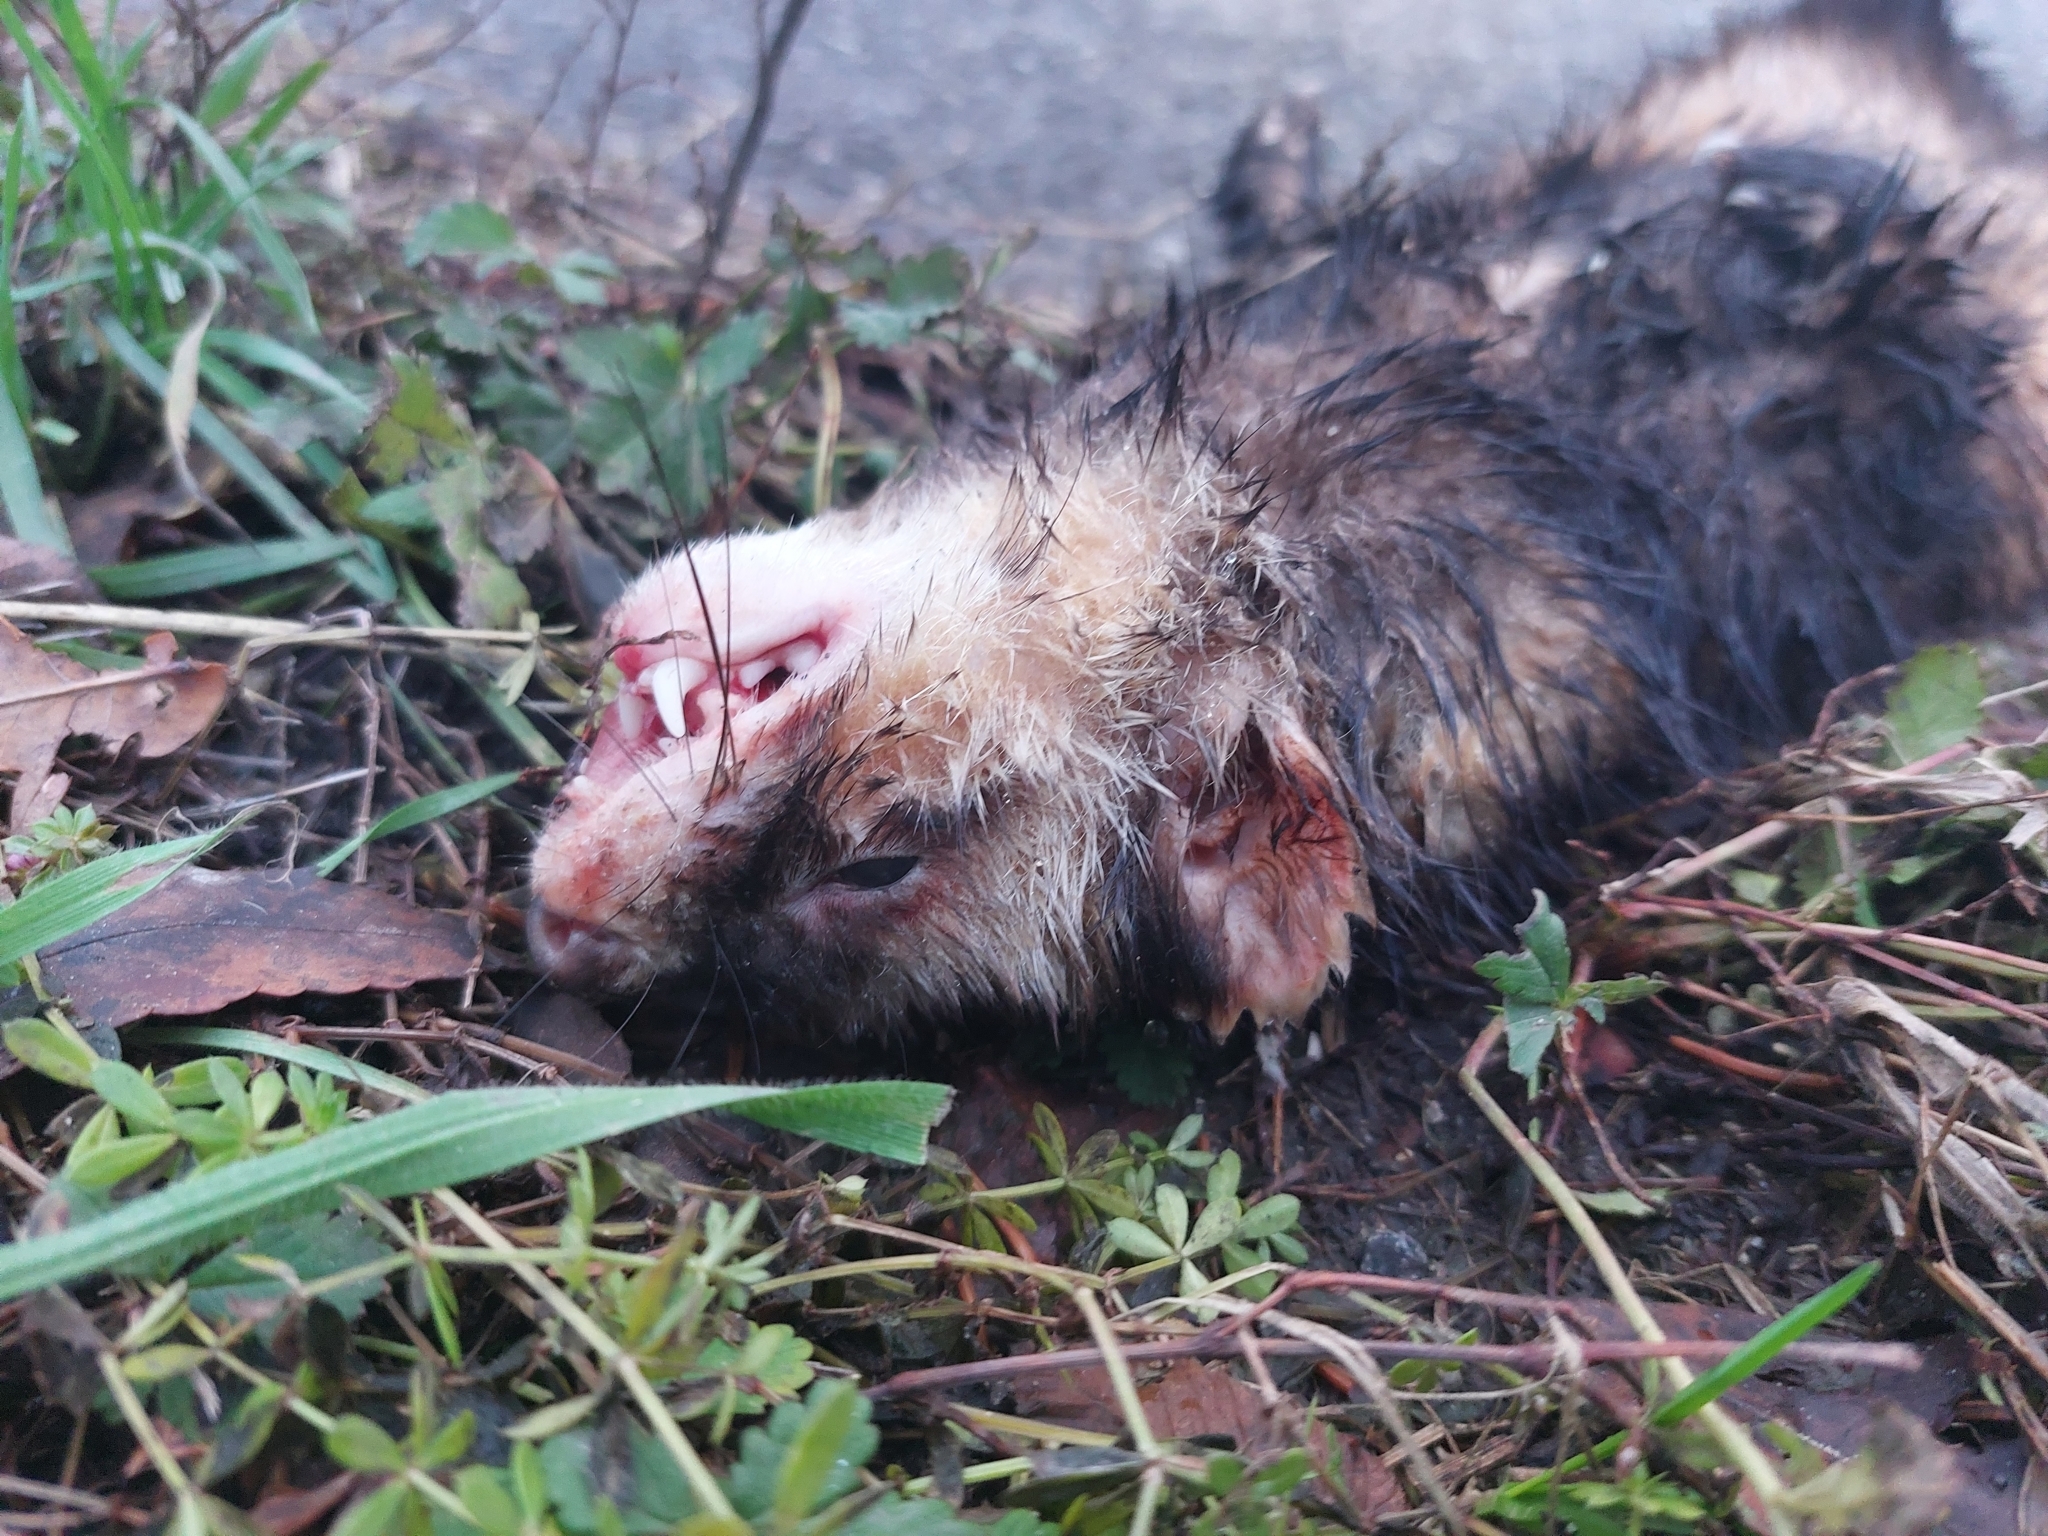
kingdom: Animalia
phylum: Chordata
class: Mammalia
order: Carnivora
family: Mustelidae
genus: Mustela
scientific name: Mustela putorius
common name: European polecat
